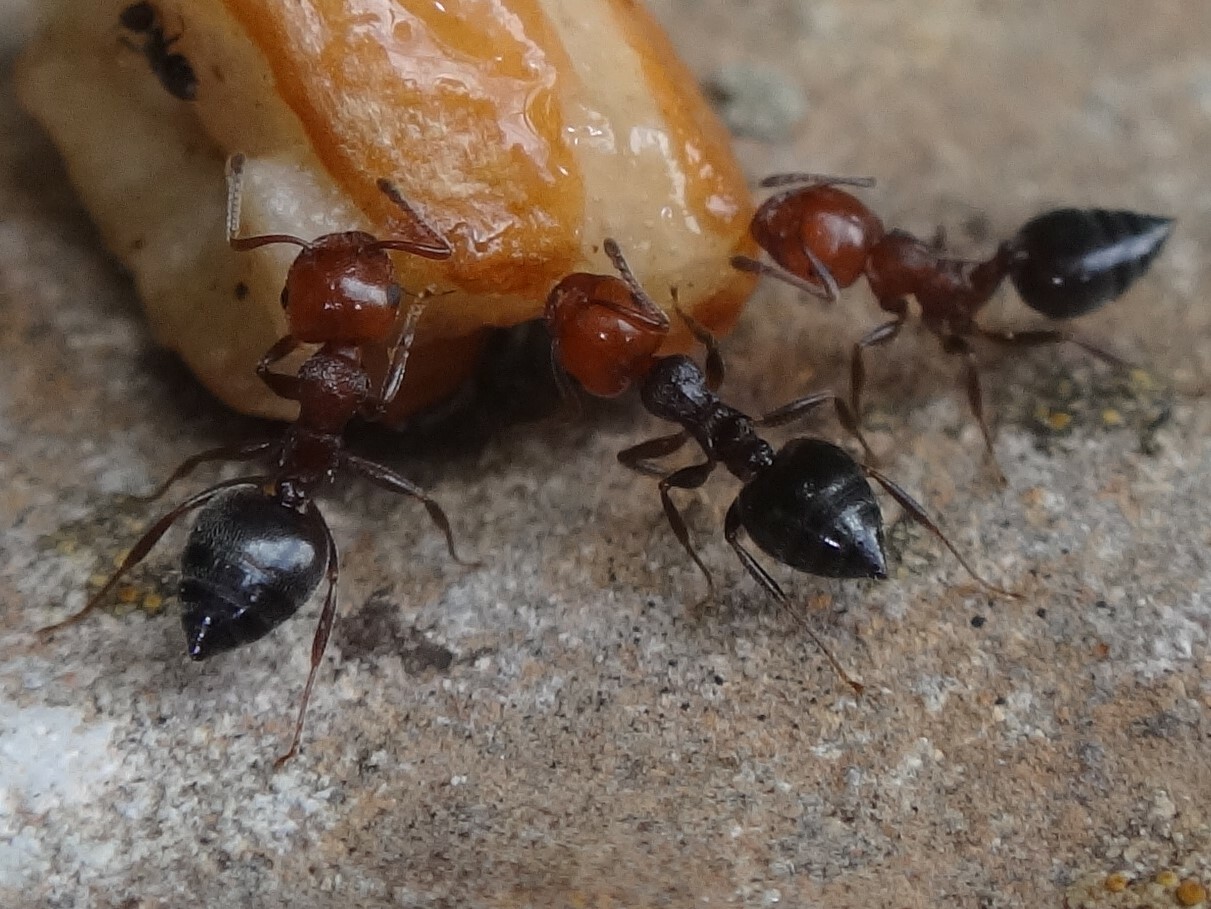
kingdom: Animalia
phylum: Arthropoda
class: Insecta
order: Hymenoptera
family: Formicidae
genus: Crematogaster
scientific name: Crematogaster scutellaris
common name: Fourmi du liège
